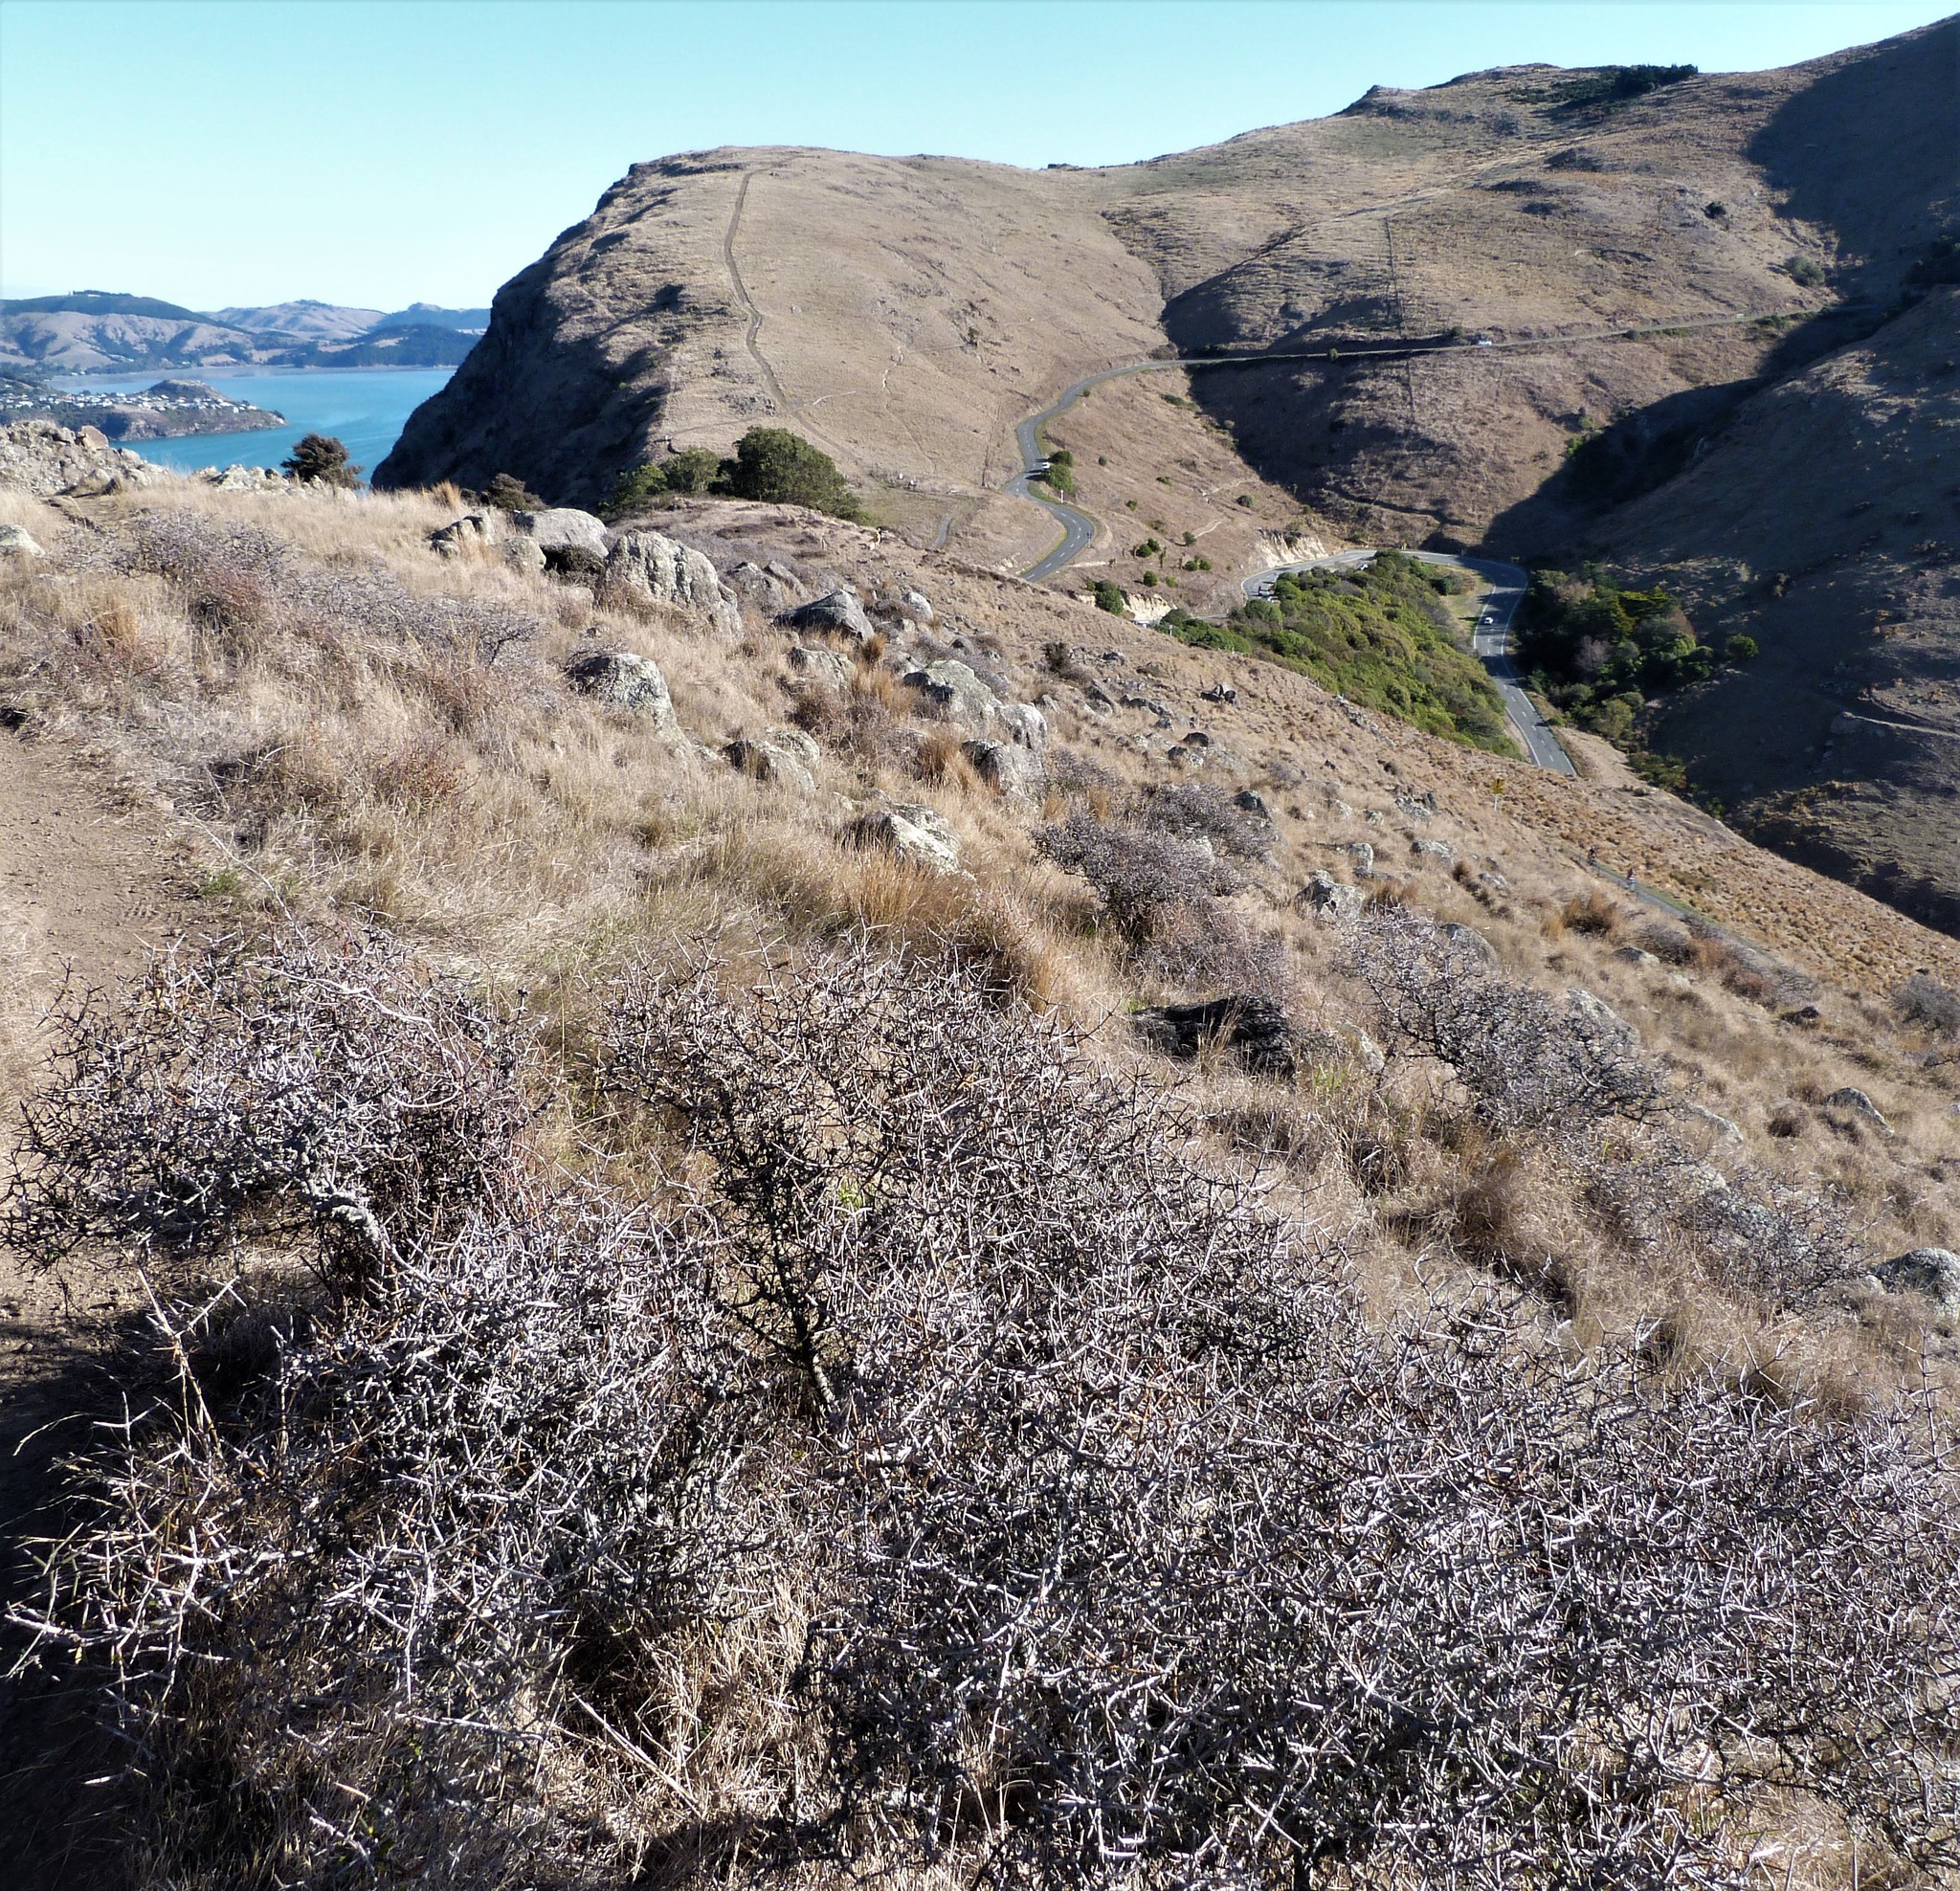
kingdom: Plantae
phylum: Tracheophyta
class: Magnoliopsida
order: Rosales
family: Rhamnaceae
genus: Discaria
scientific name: Discaria toumatou
